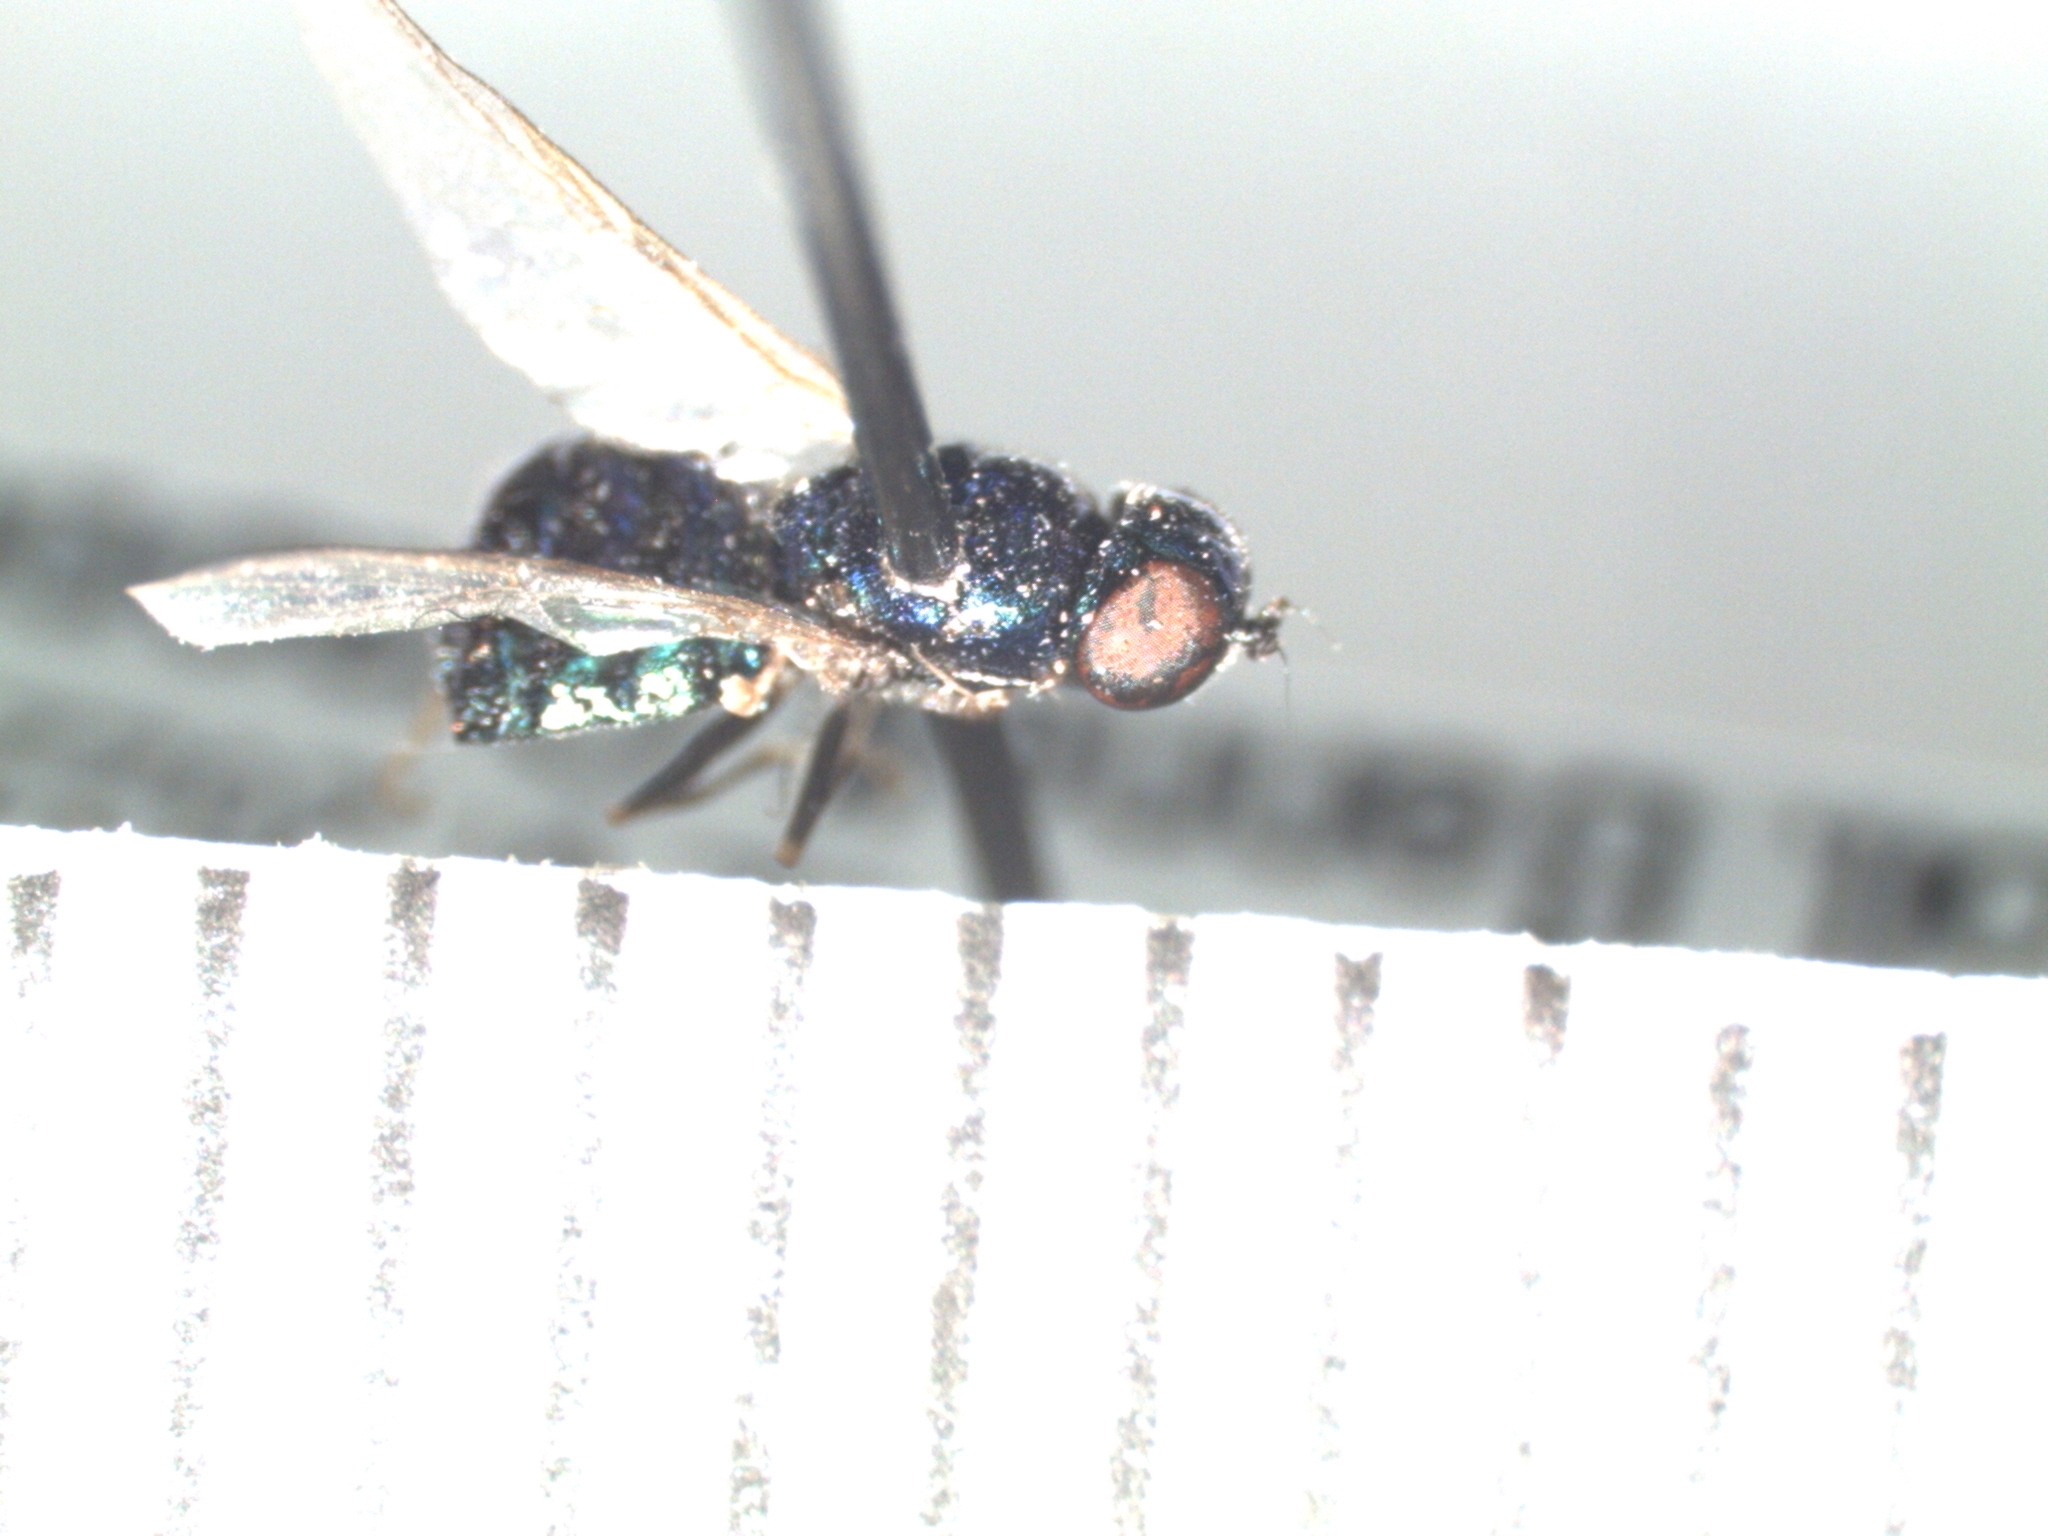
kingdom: Animalia
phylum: Arthropoda
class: Insecta
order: Diptera
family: Stratiomyidae
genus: Microchrysa
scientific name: Microchrysa polita
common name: Black-horned gem
